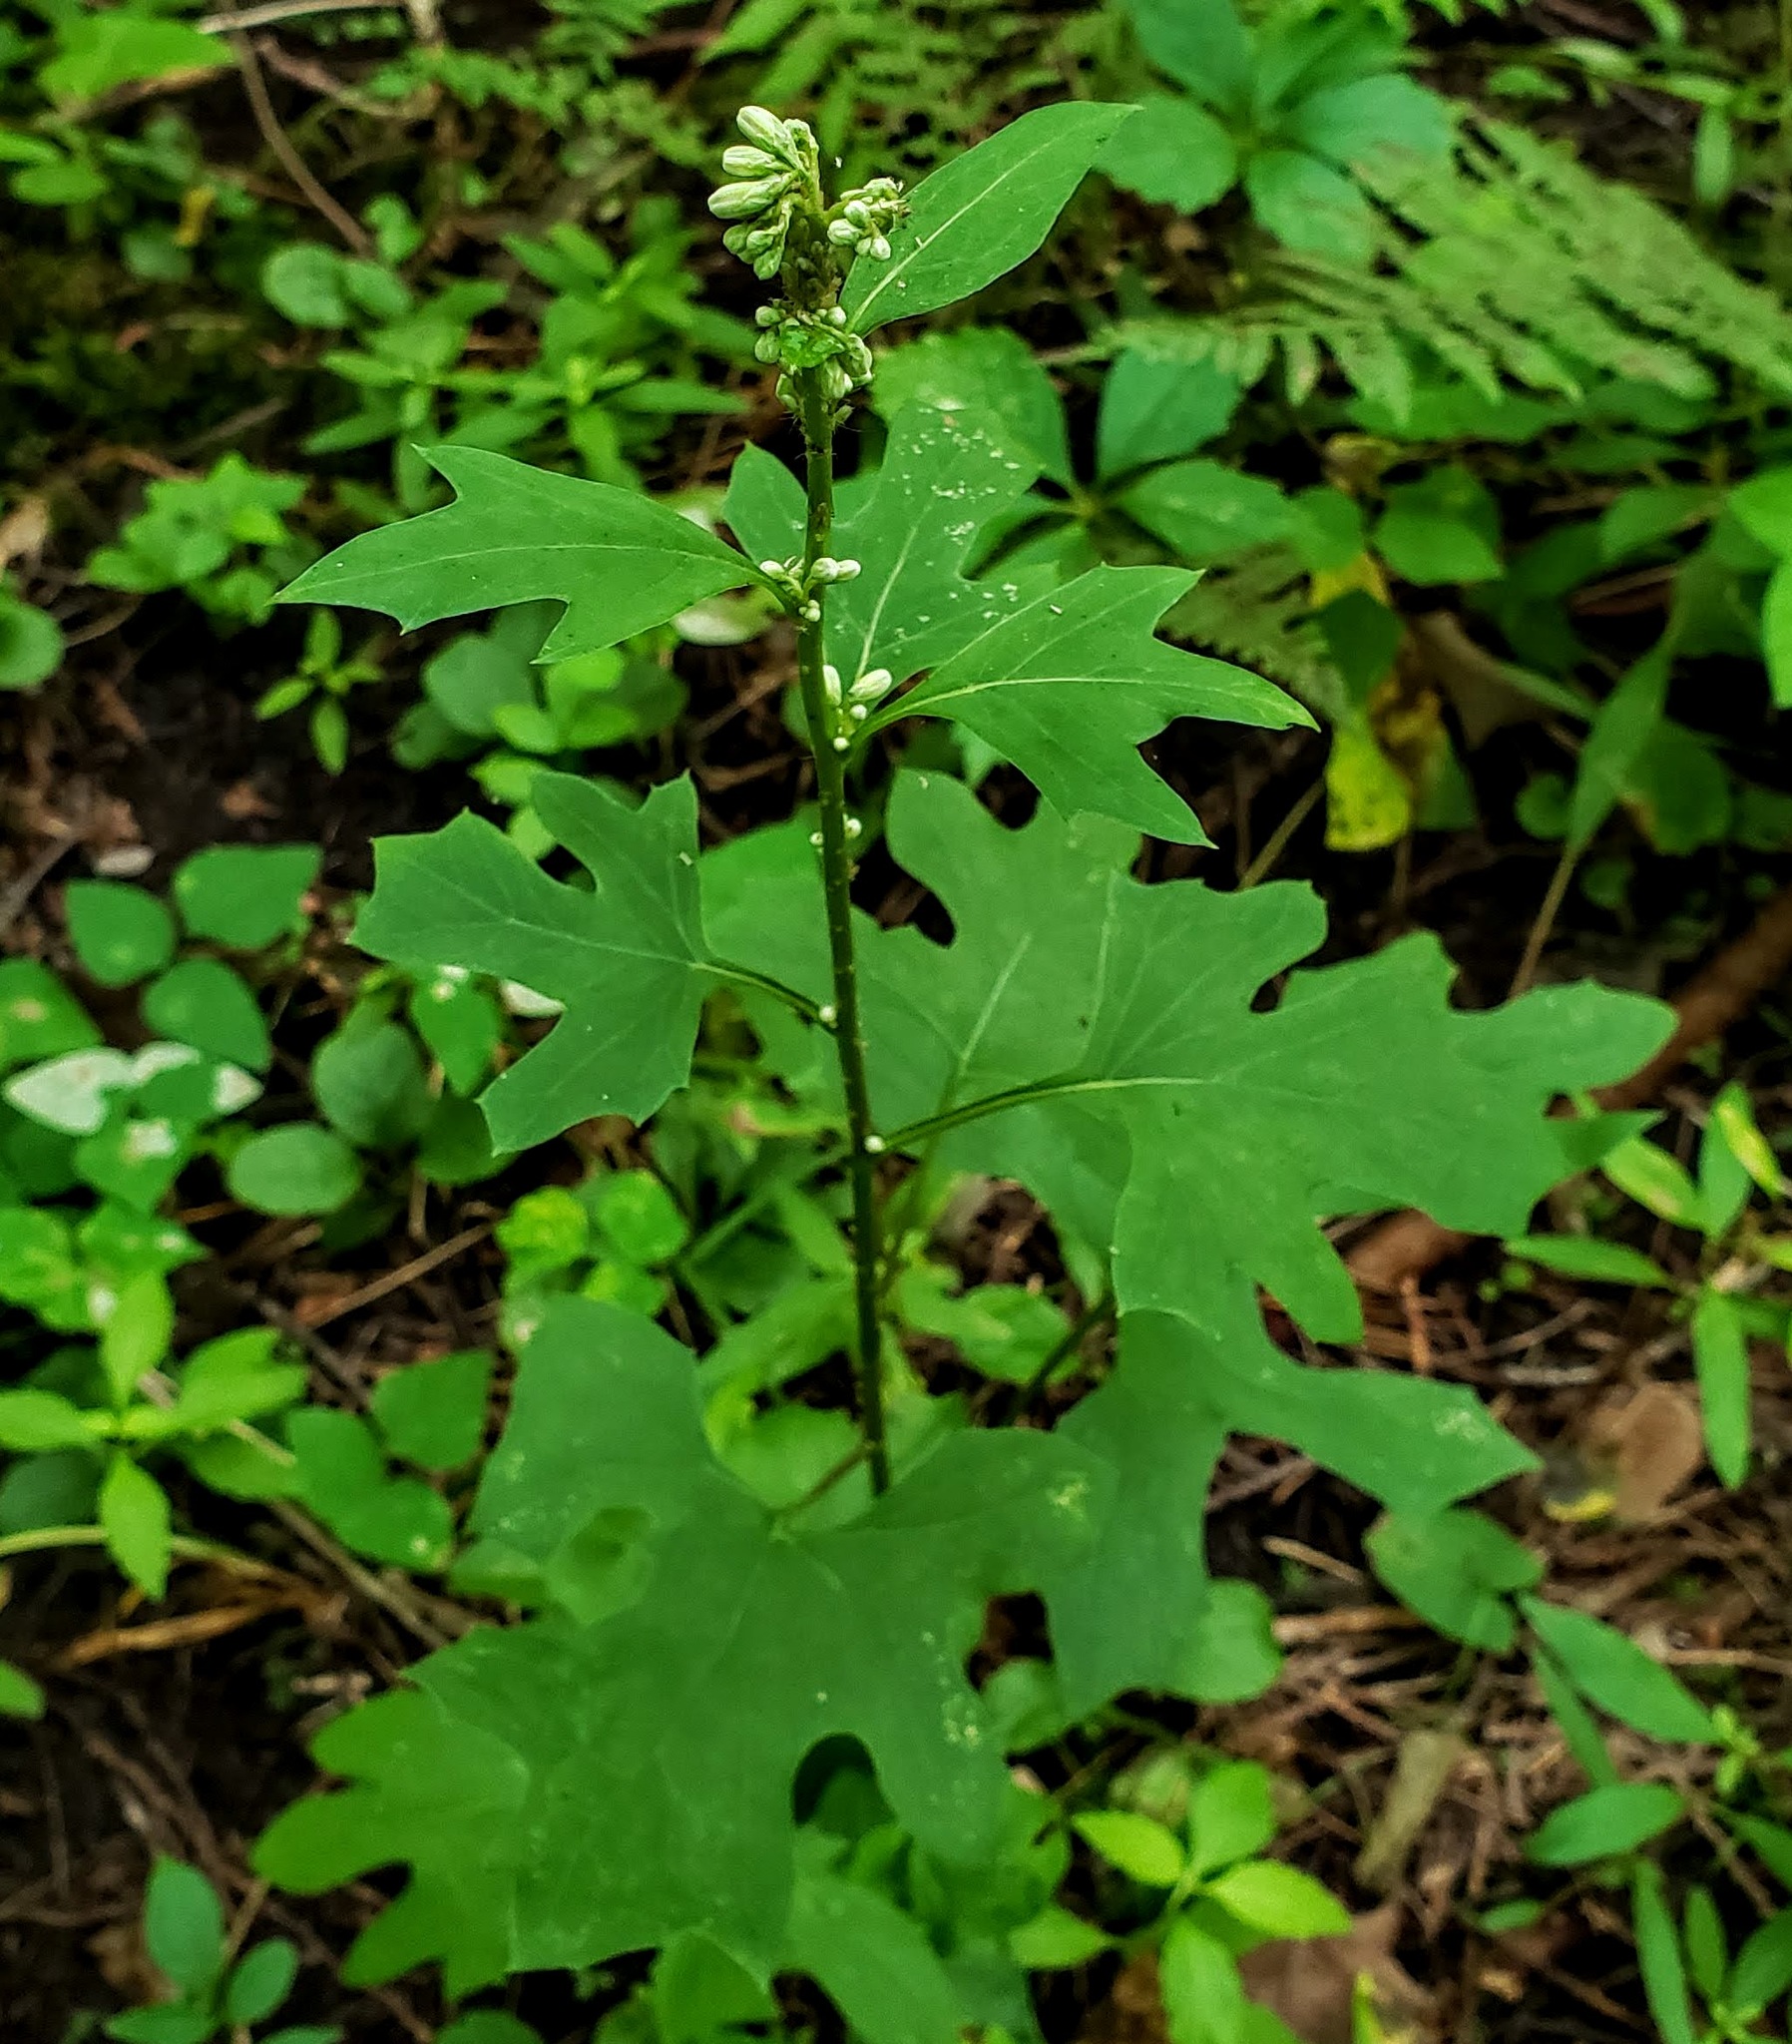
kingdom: Plantae
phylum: Tracheophyta
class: Magnoliopsida
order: Asterales
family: Asteraceae
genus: Nabalus
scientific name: Nabalus albus
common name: White rattlesnakeroot
